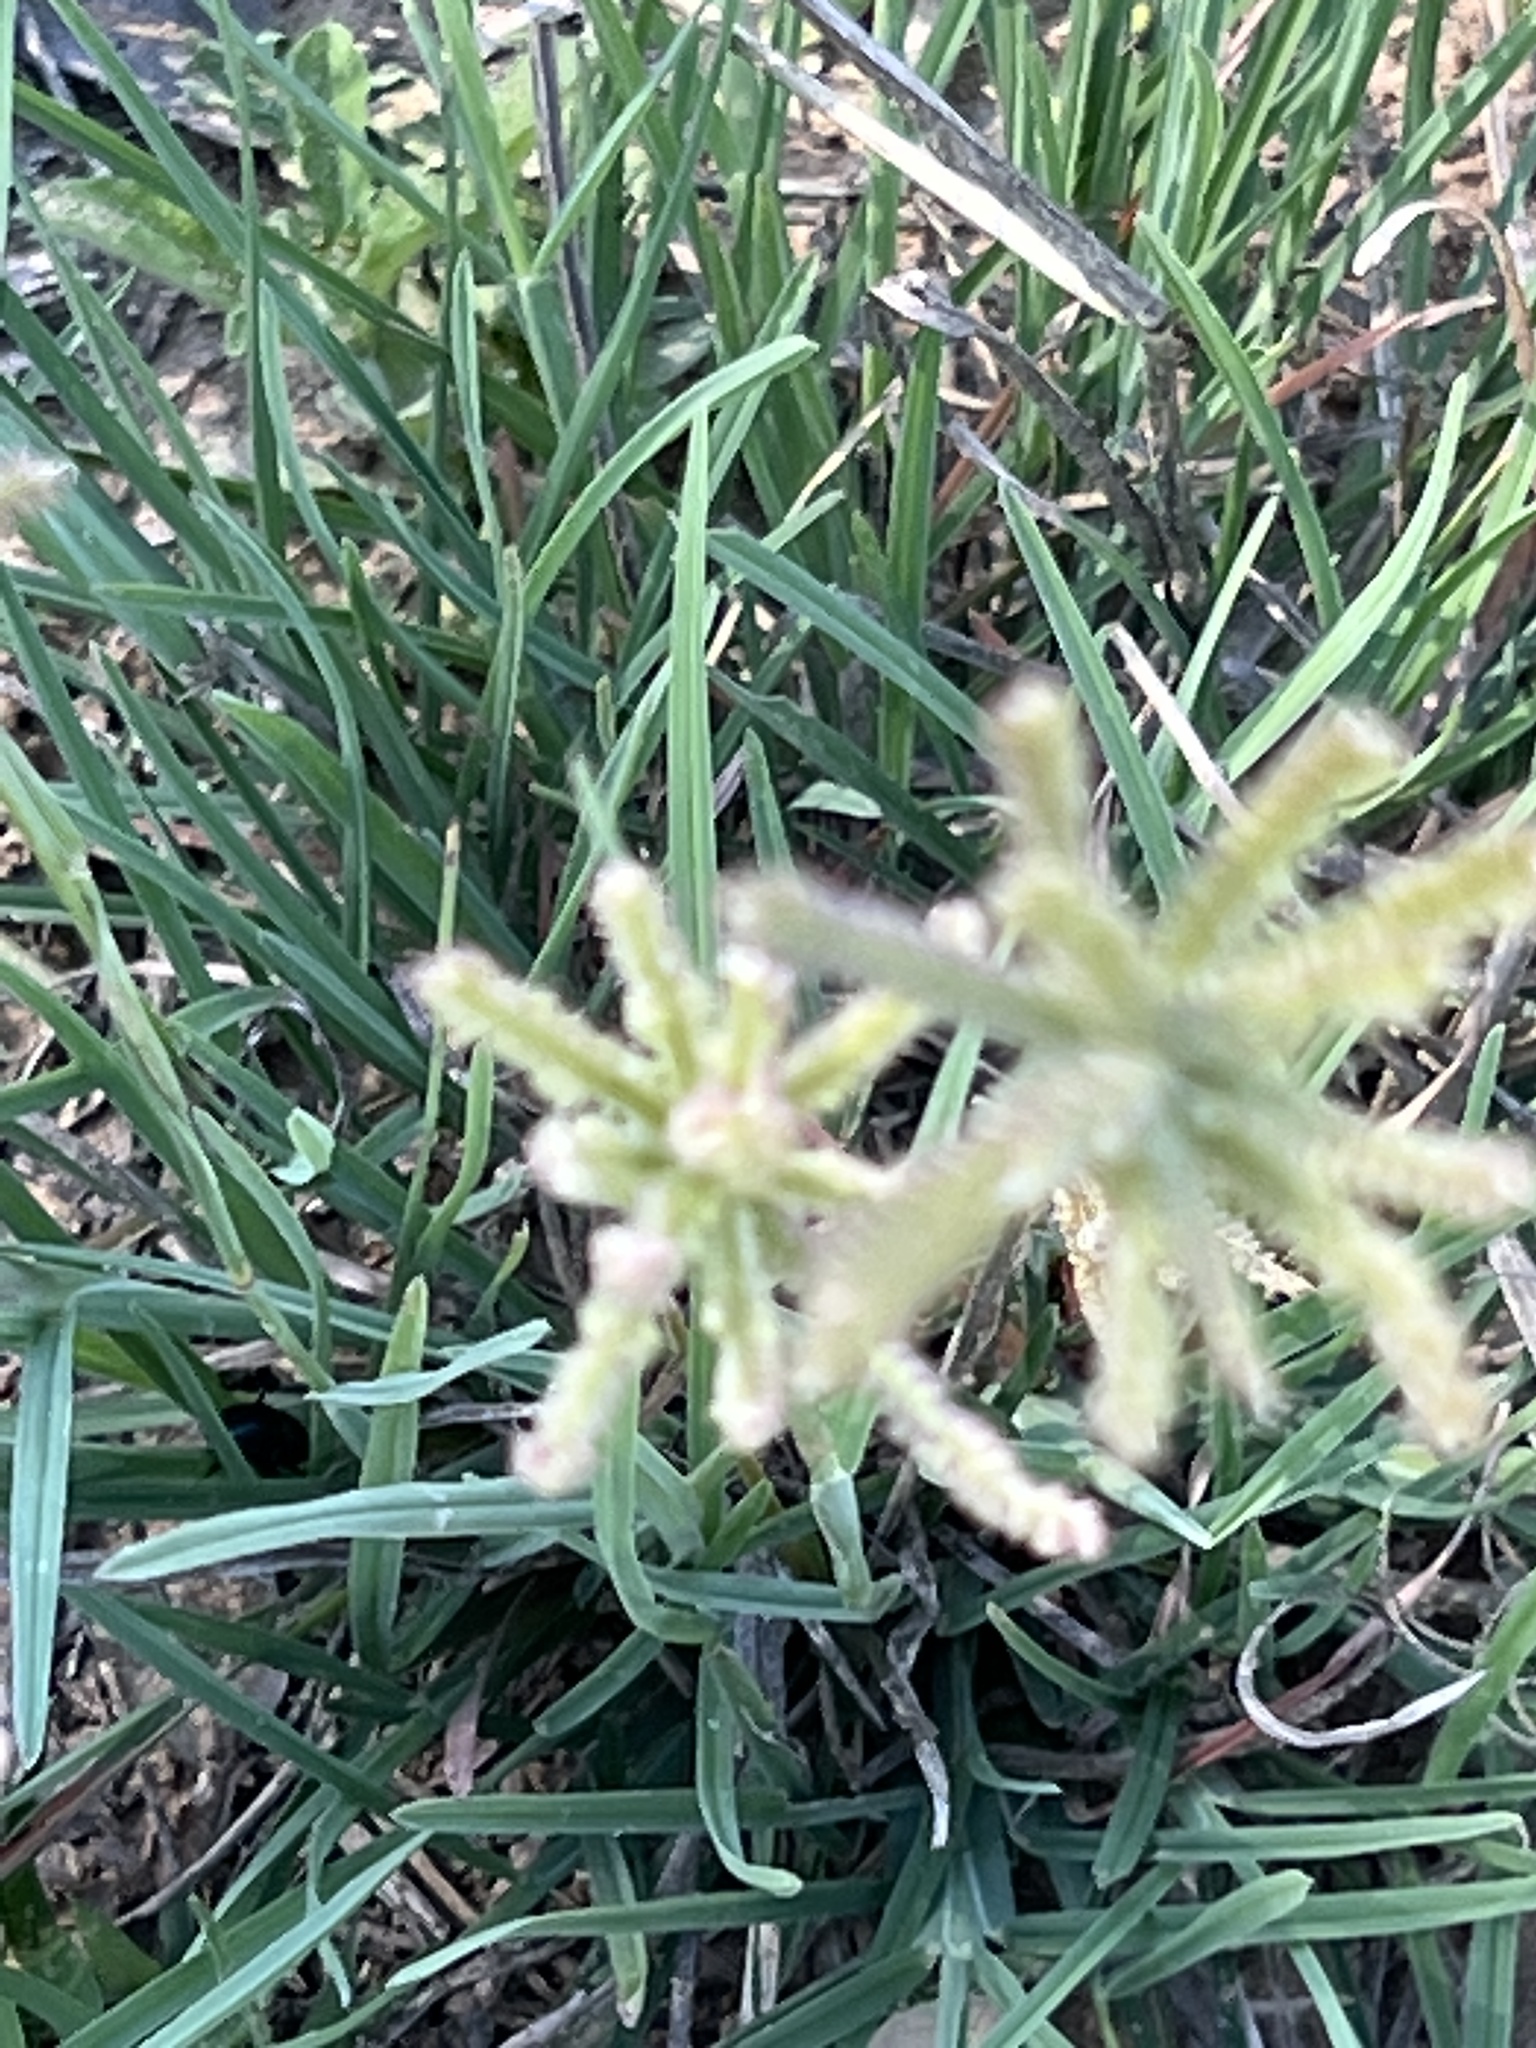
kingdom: Plantae
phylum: Tracheophyta
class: Liliopsida
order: Poales
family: Poaceae
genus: Chloris
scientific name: Chloris cucullata
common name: Hooded windmill grass
